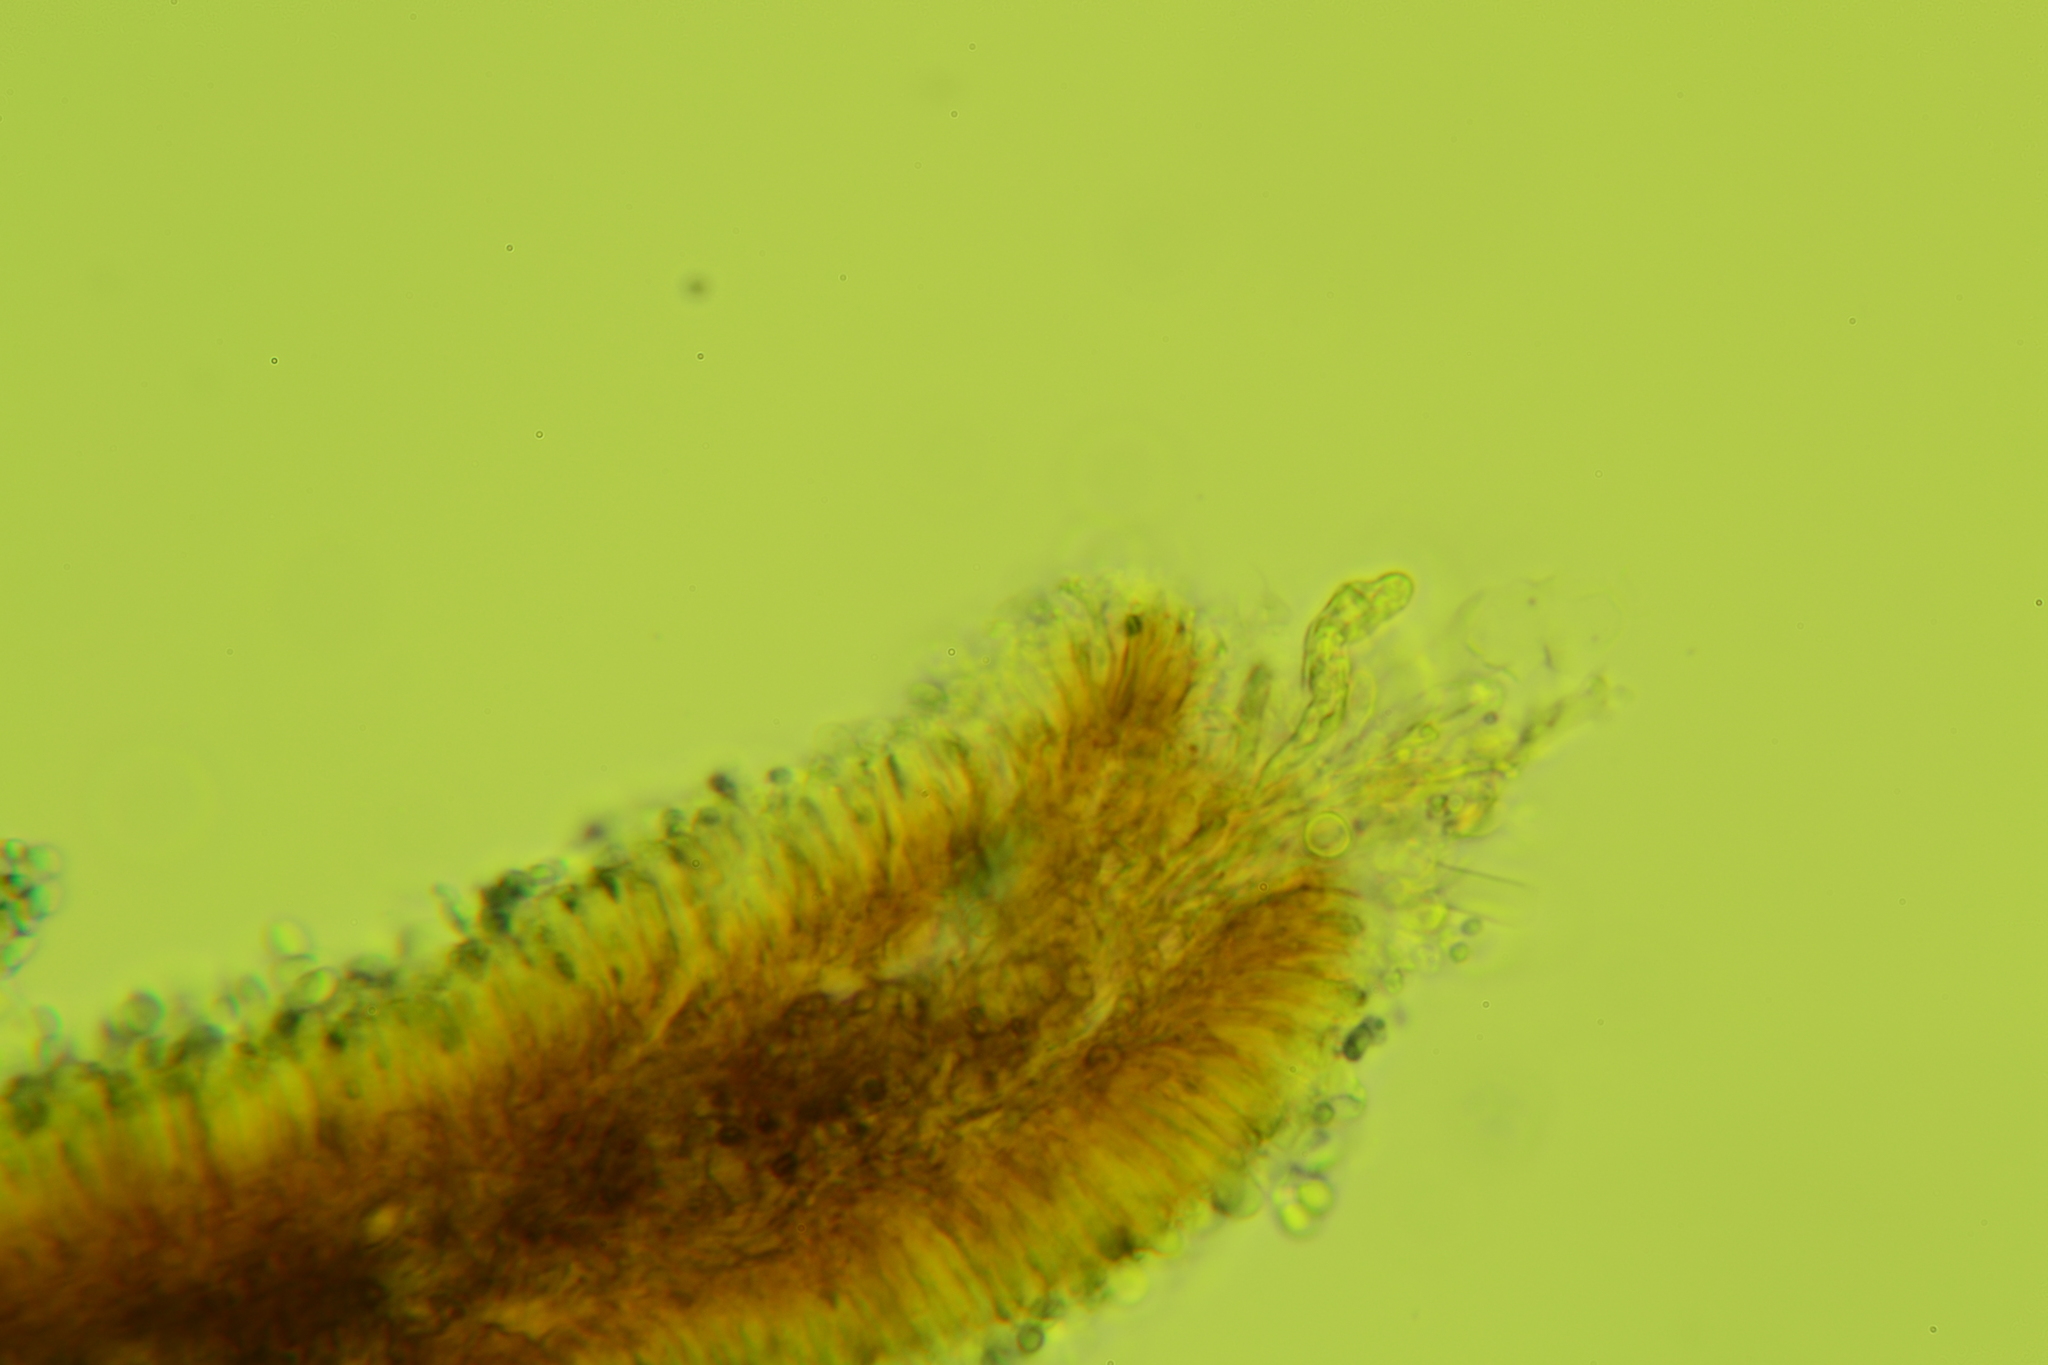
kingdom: Fungi
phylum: Basidiomycota
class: Agaricomycetes
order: Agaricales
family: Mycenaceae
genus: Resinomycena
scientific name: Resinomycena rhododendri
